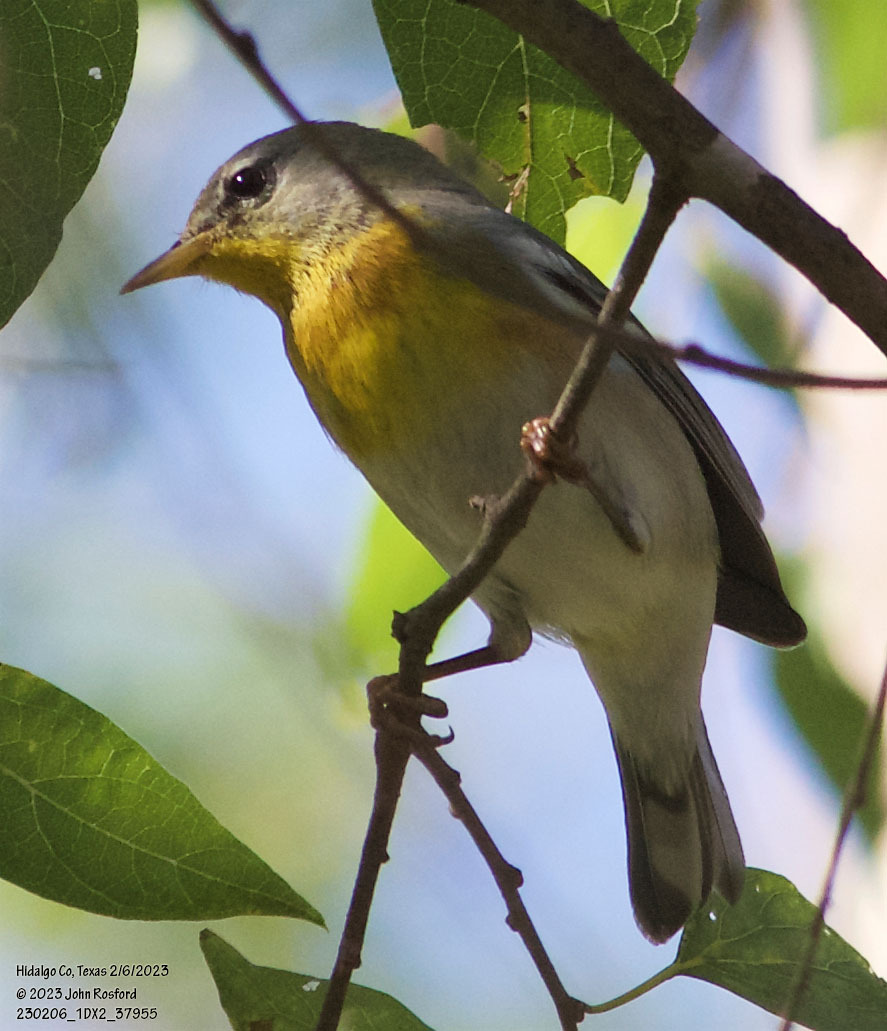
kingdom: Animalia
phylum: Chordata
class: Aves
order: Passeriformes
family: Parulidae
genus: Setophaga
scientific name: Setophaga americana
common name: Northern parula
